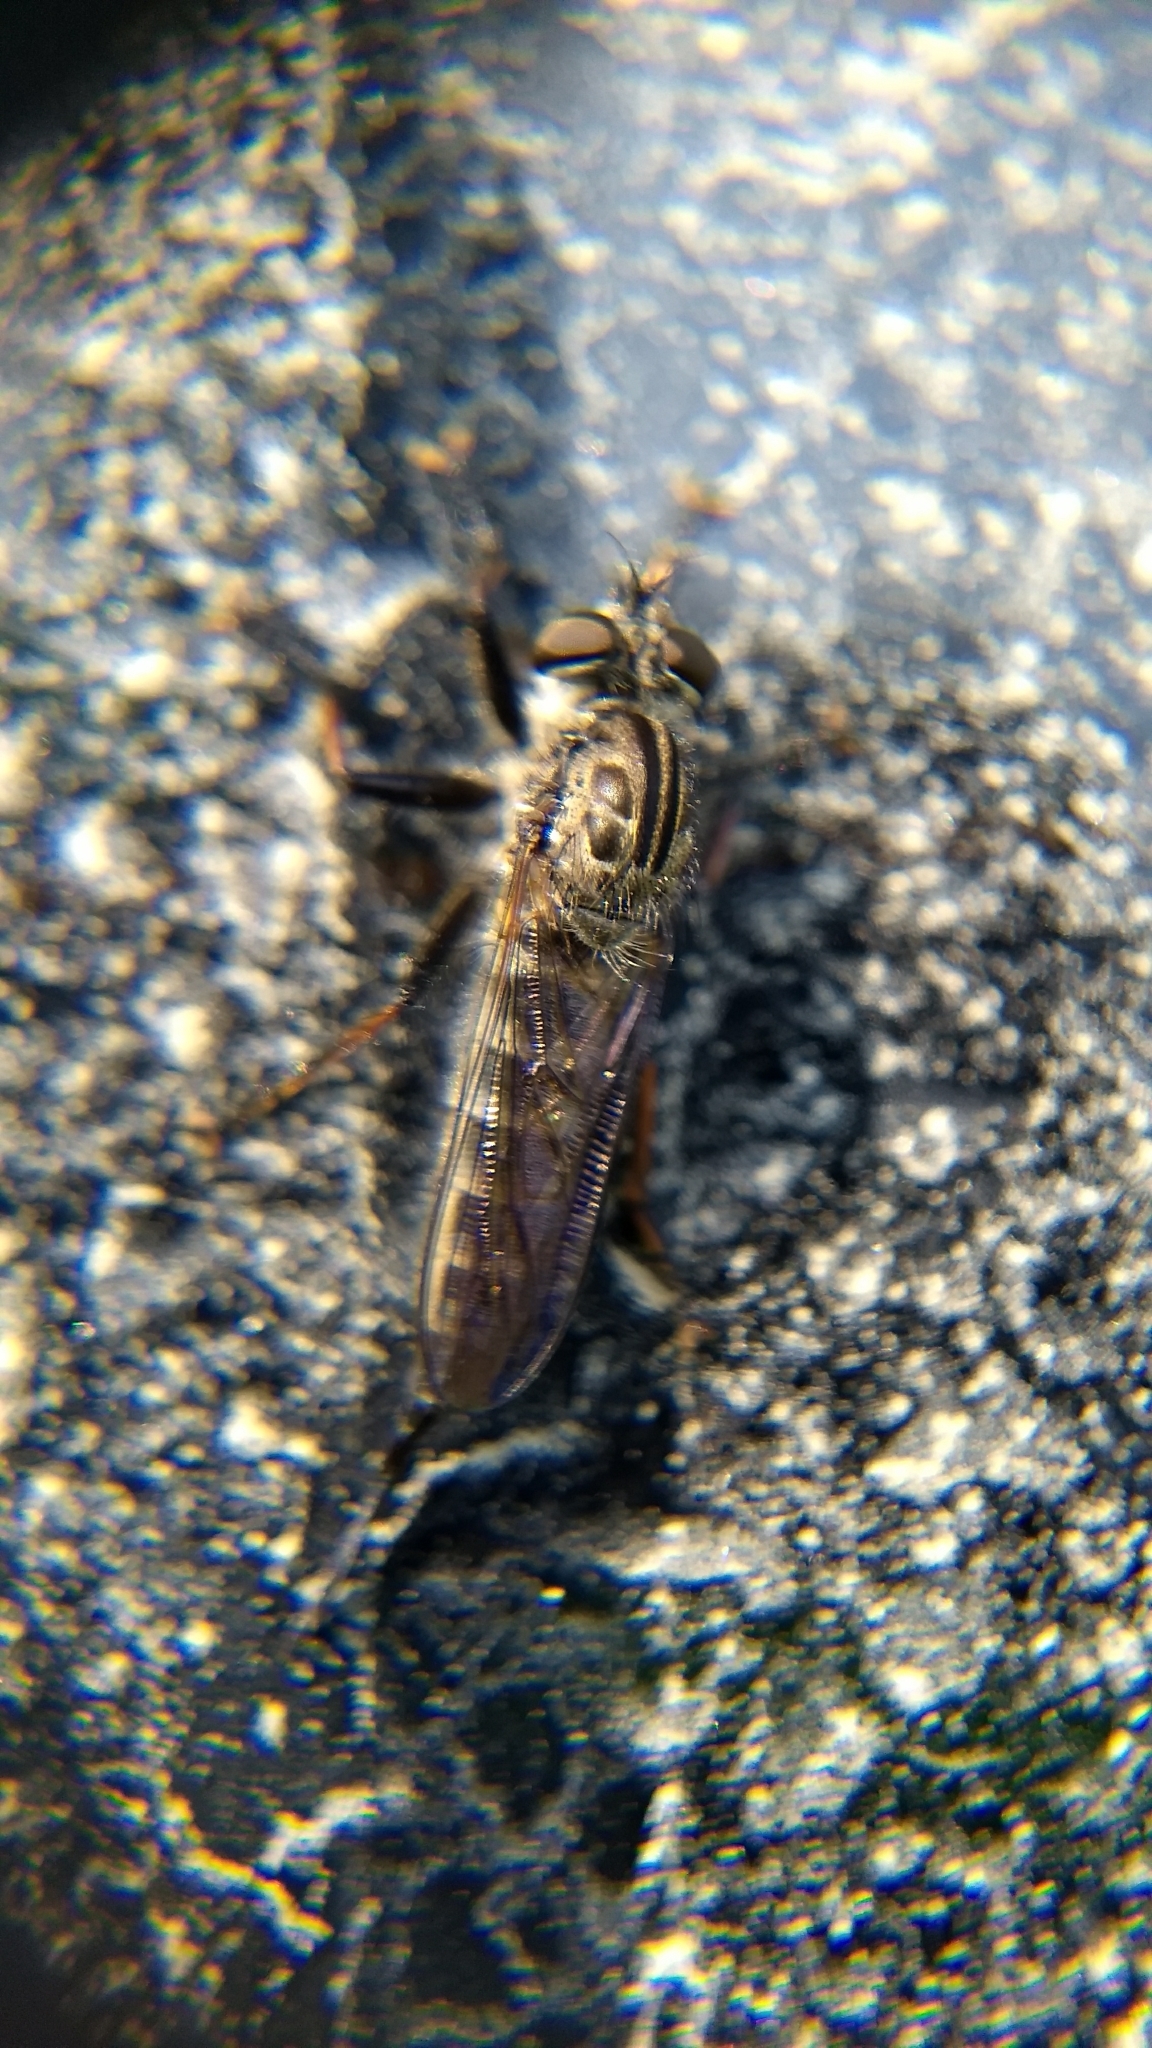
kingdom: Animalia
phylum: Arthropoda
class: Insecta
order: Diptera
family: Asilidae
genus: Efferia
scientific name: Efferia aestuans
